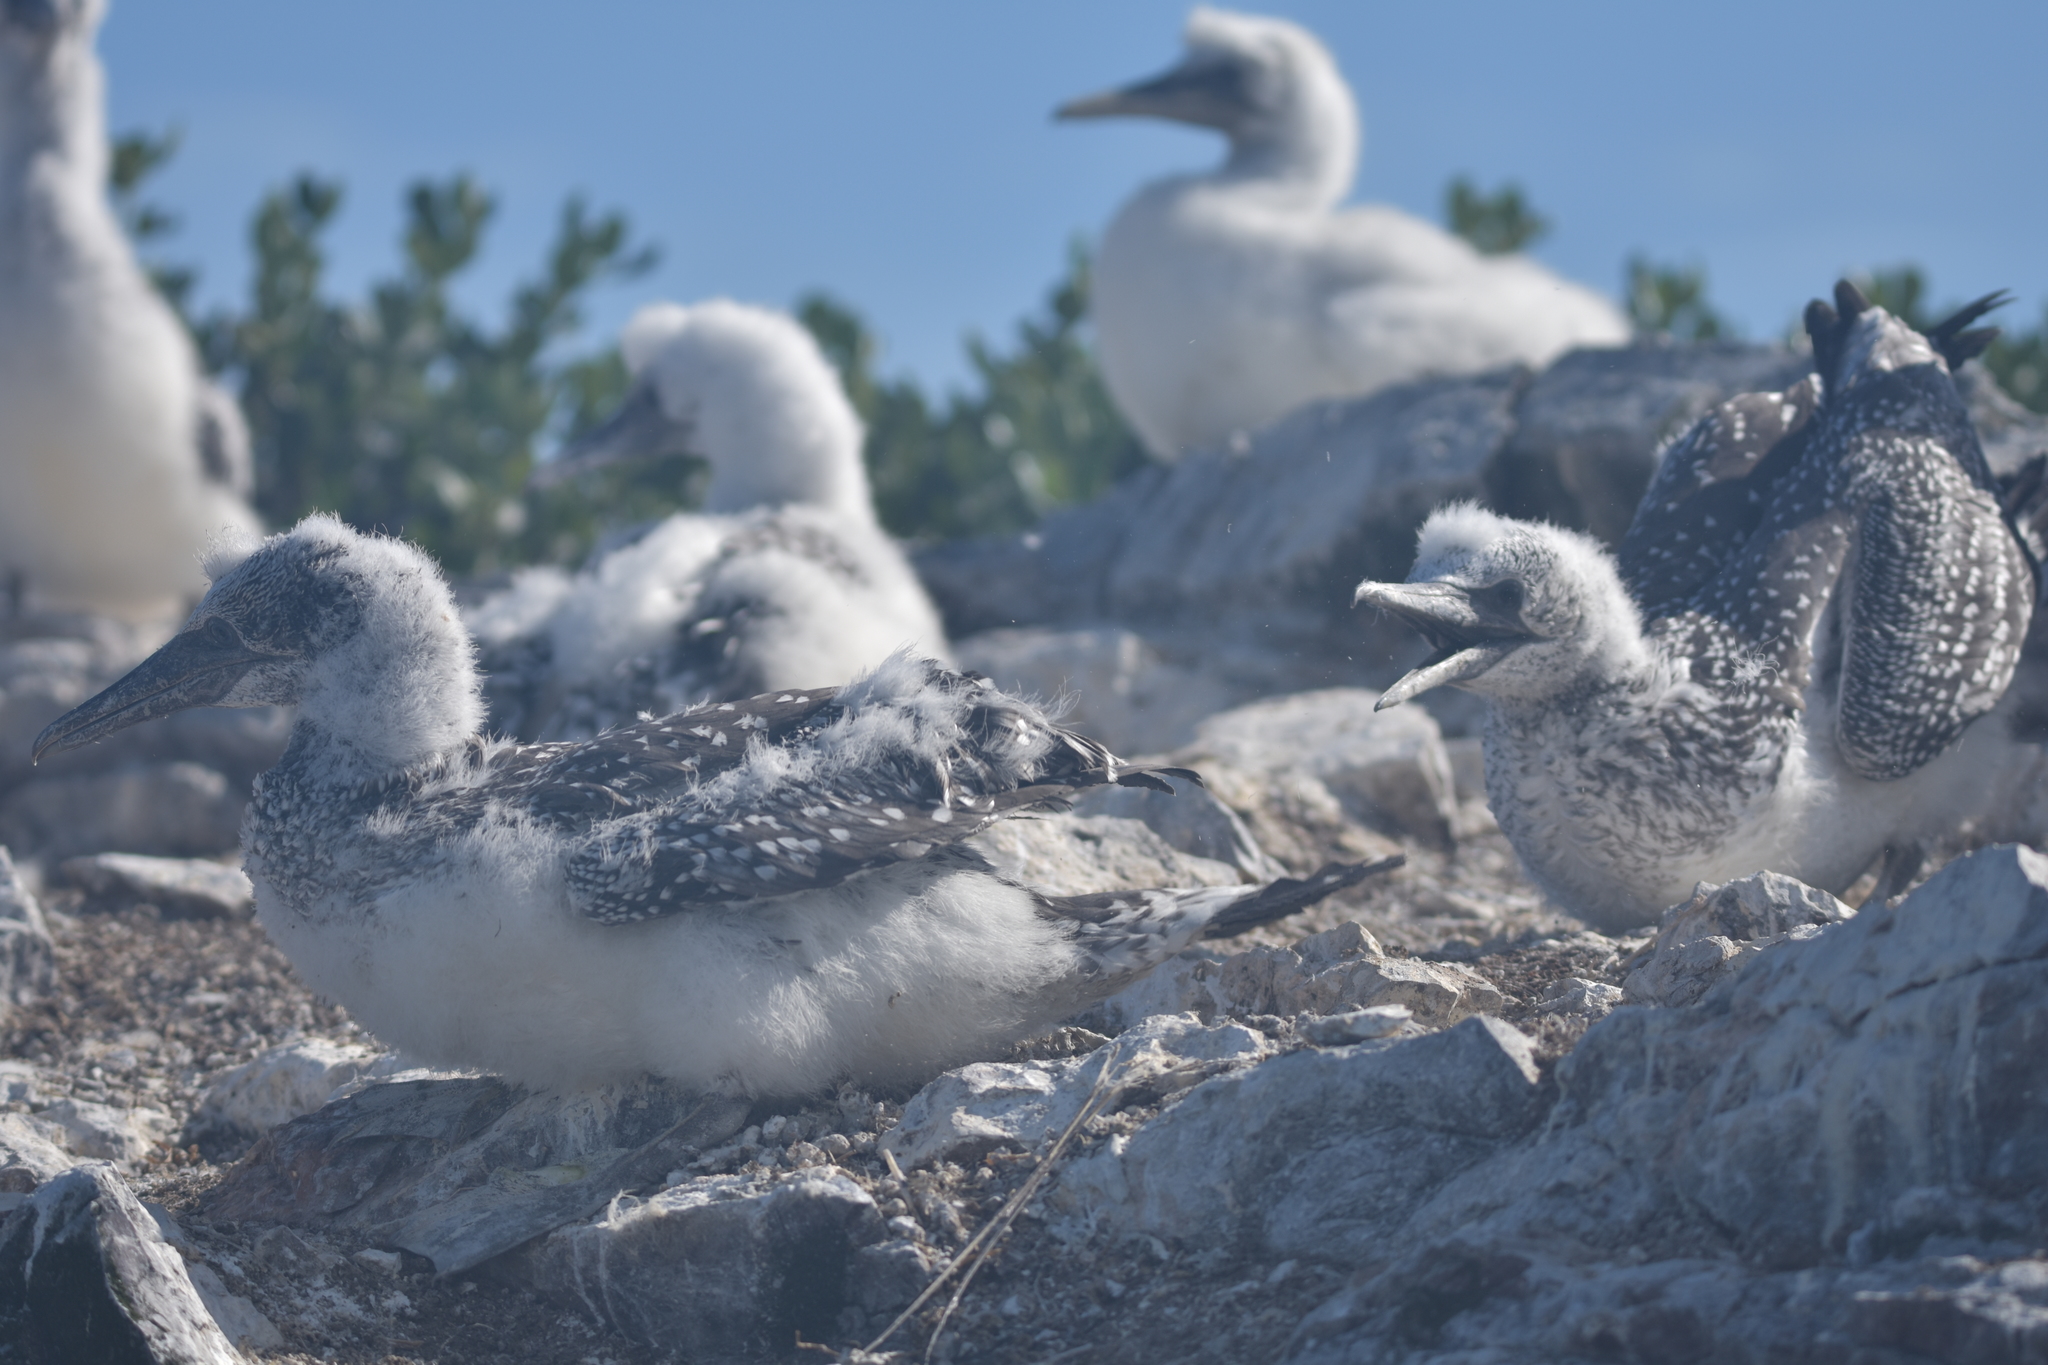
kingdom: Animalia
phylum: Chordata
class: Aves
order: Suliformes
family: Sulidae
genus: Morus
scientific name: Morus serrator
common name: Australasian gannet
